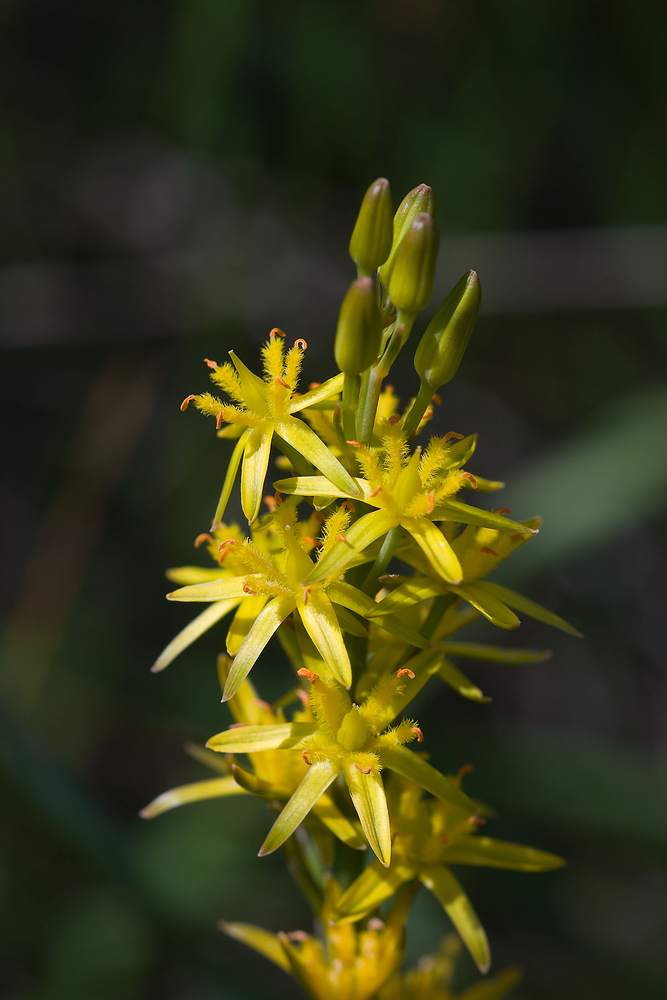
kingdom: Plantae
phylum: Tracheophyta
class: Liliopsida
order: Dioscoreales
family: Nartheciaceae
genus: Narthecium
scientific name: Narthecium ossifragum
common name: Bog asphodel
